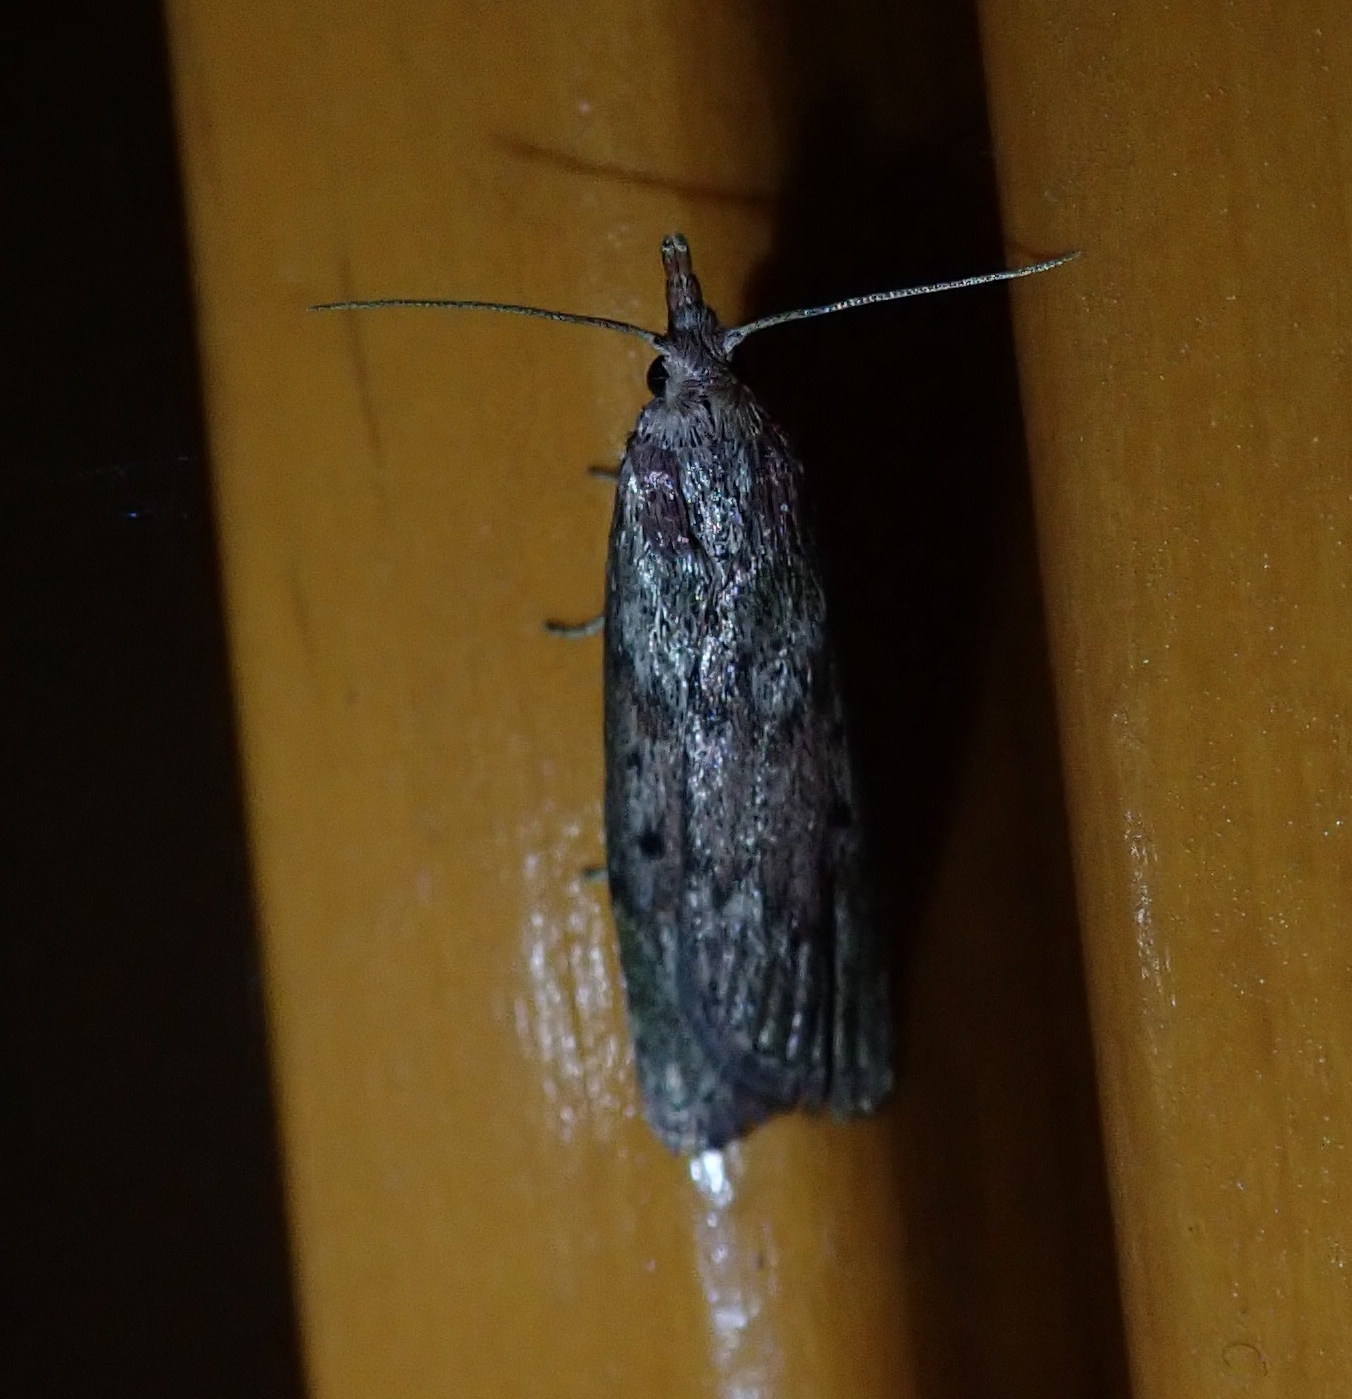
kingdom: Animalia
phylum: Arthropoda
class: Insecta
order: Lepidoptera
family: Pyralidae
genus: Aphomia
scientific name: Aphomia sociella
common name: Bee moth
